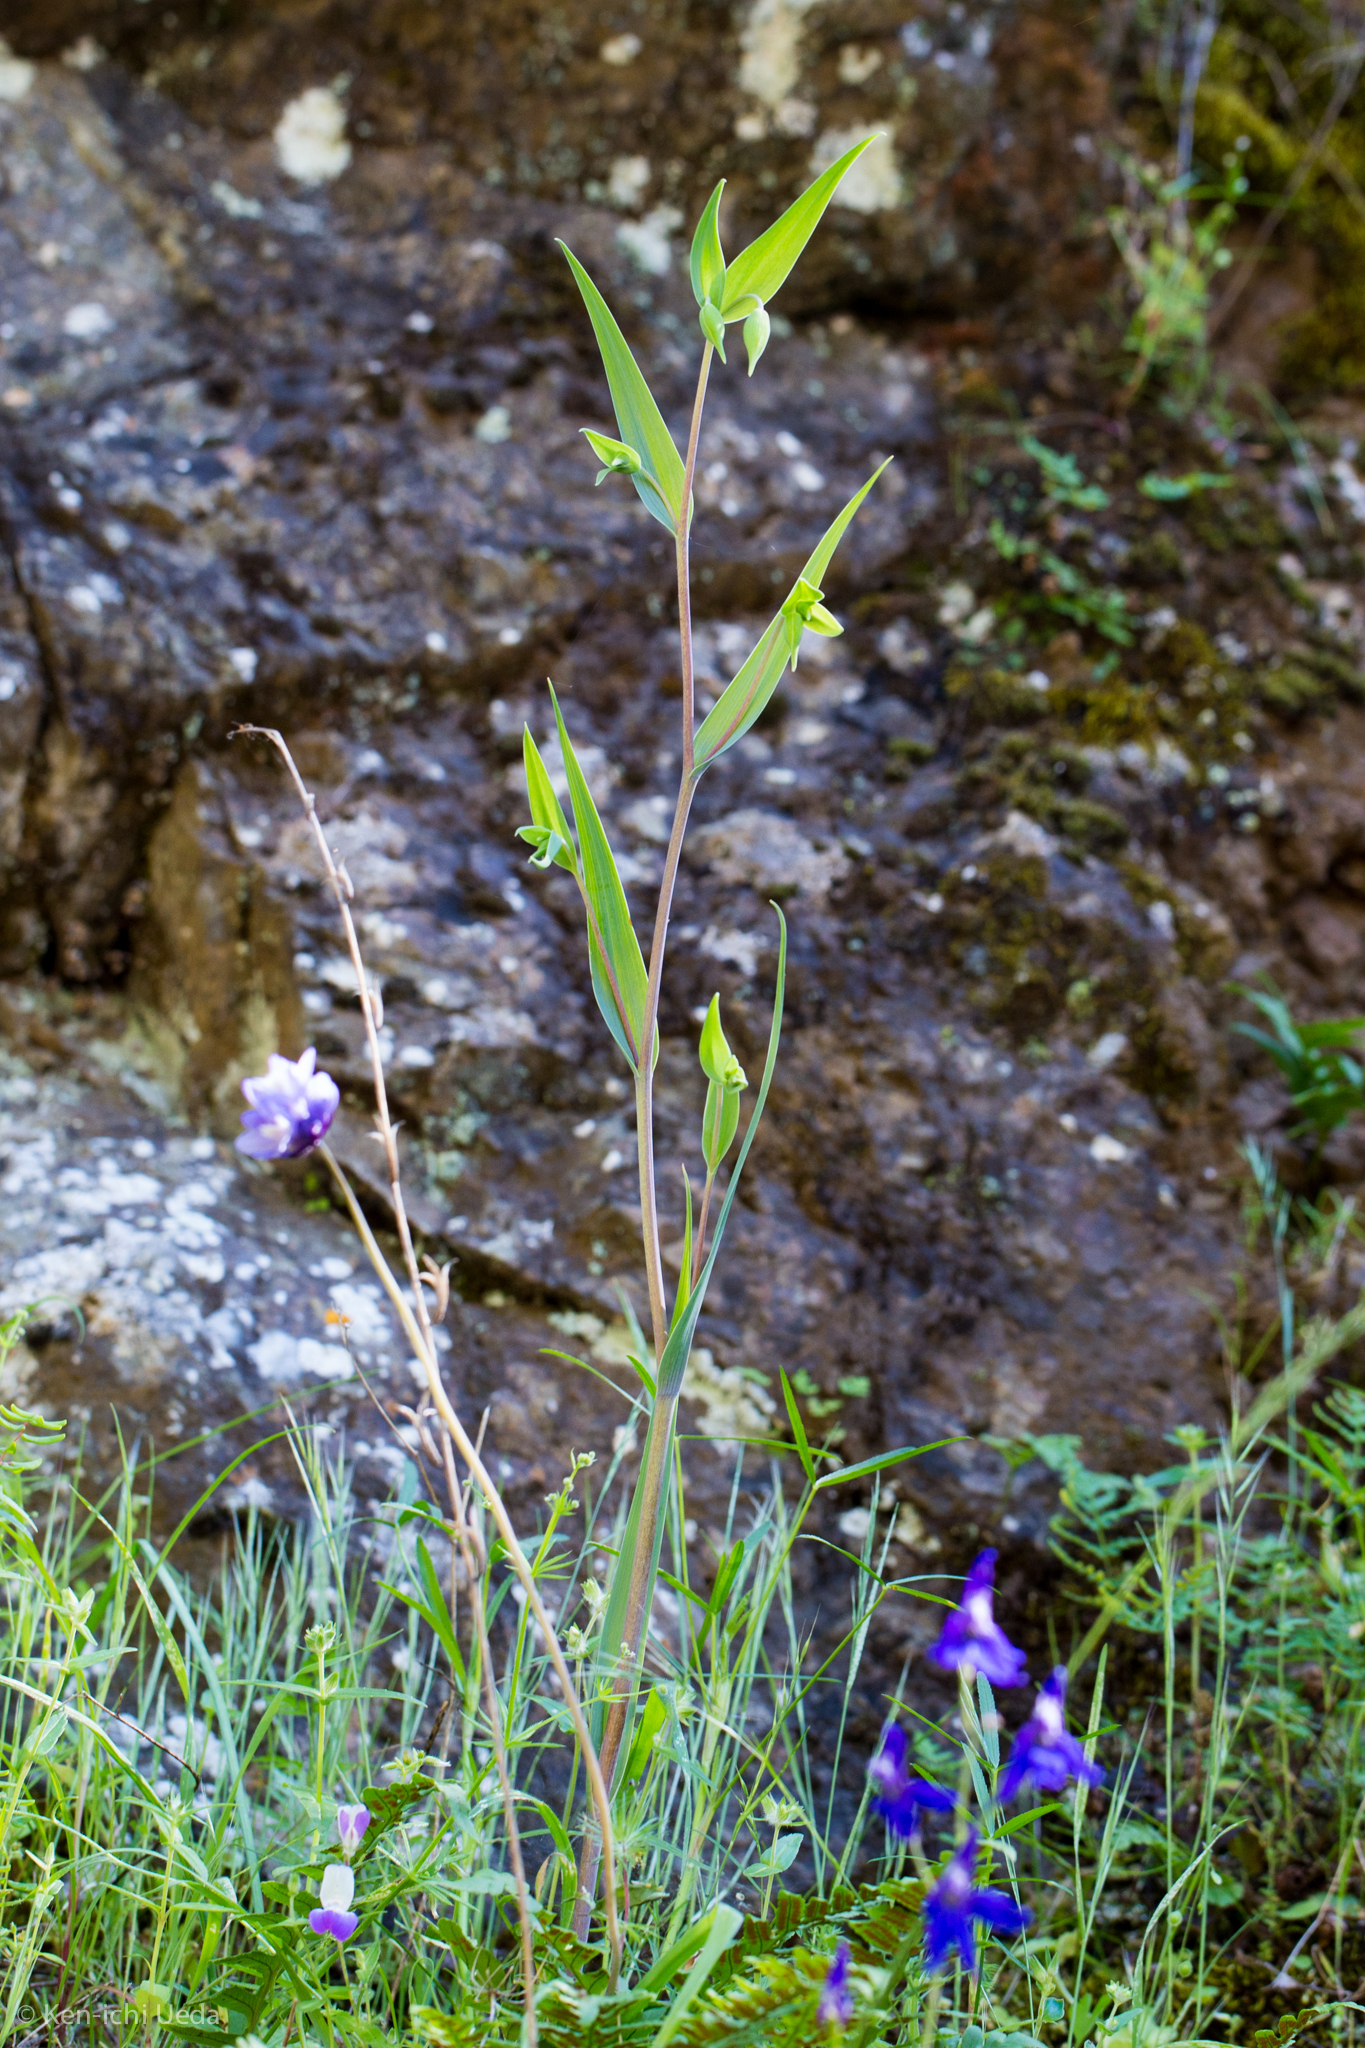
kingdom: Plantae
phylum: Tracheophyta
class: Liliopsida
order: Liliales
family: Liliaceae
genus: Calochortus
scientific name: Calochortus albus
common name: Fairy-lantern
